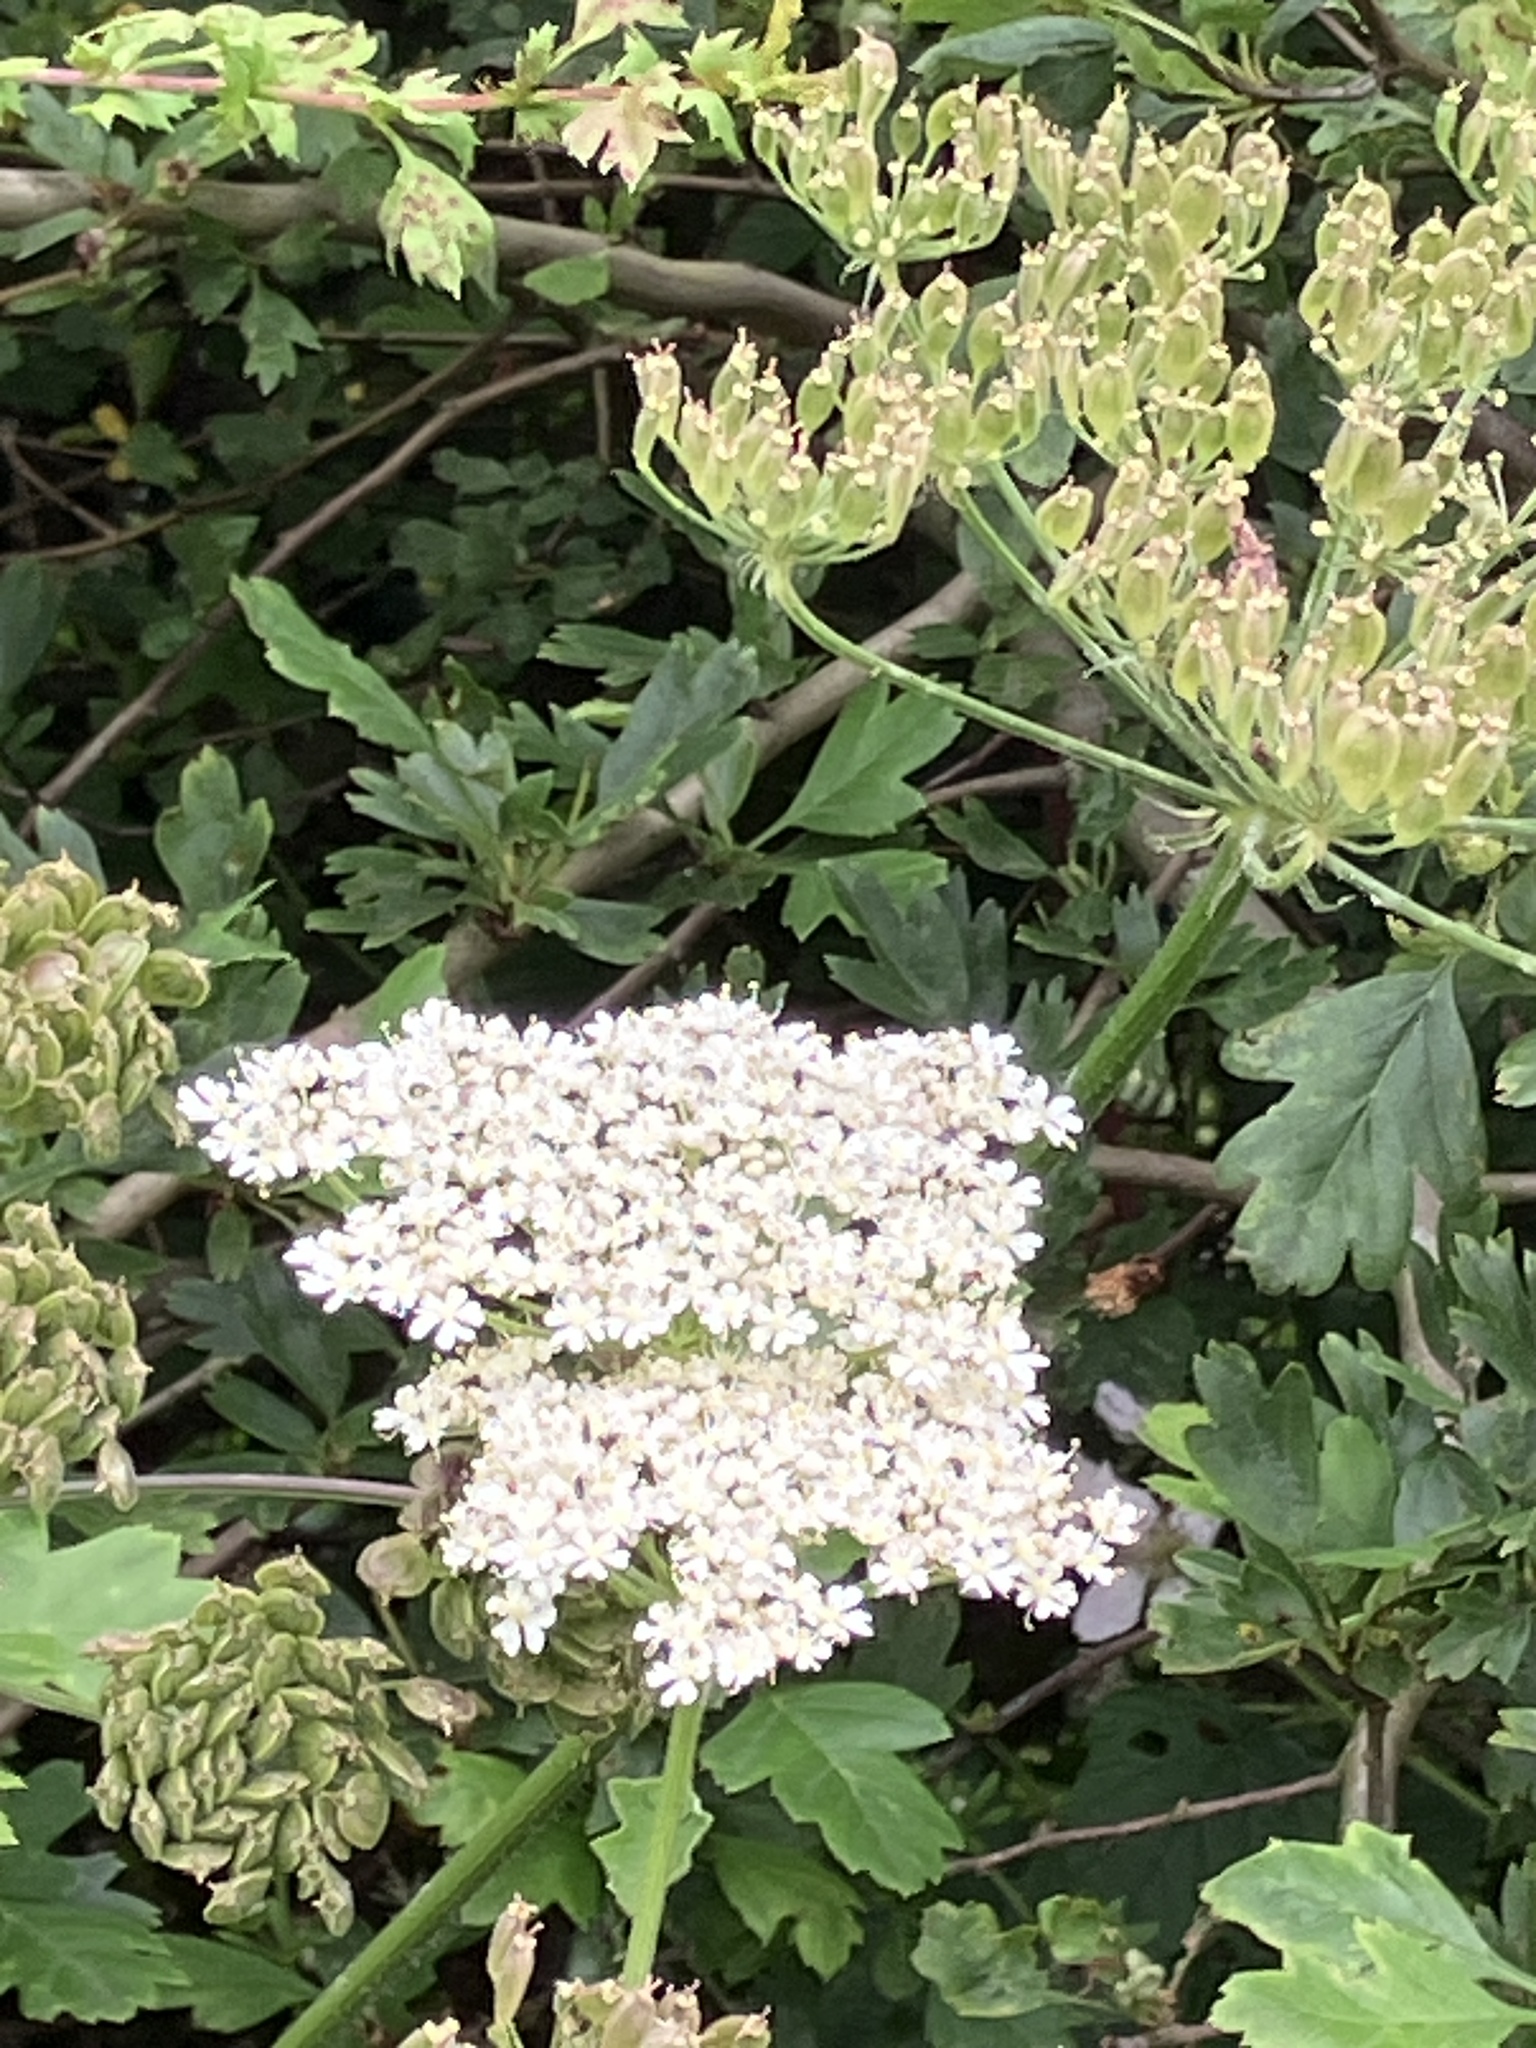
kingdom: Plantae
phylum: Tracheophyta
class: Magnoliopsida
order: Apiales
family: Apiaceae
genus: Heracleum
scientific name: Heracleum sphondylium
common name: Hogweed
